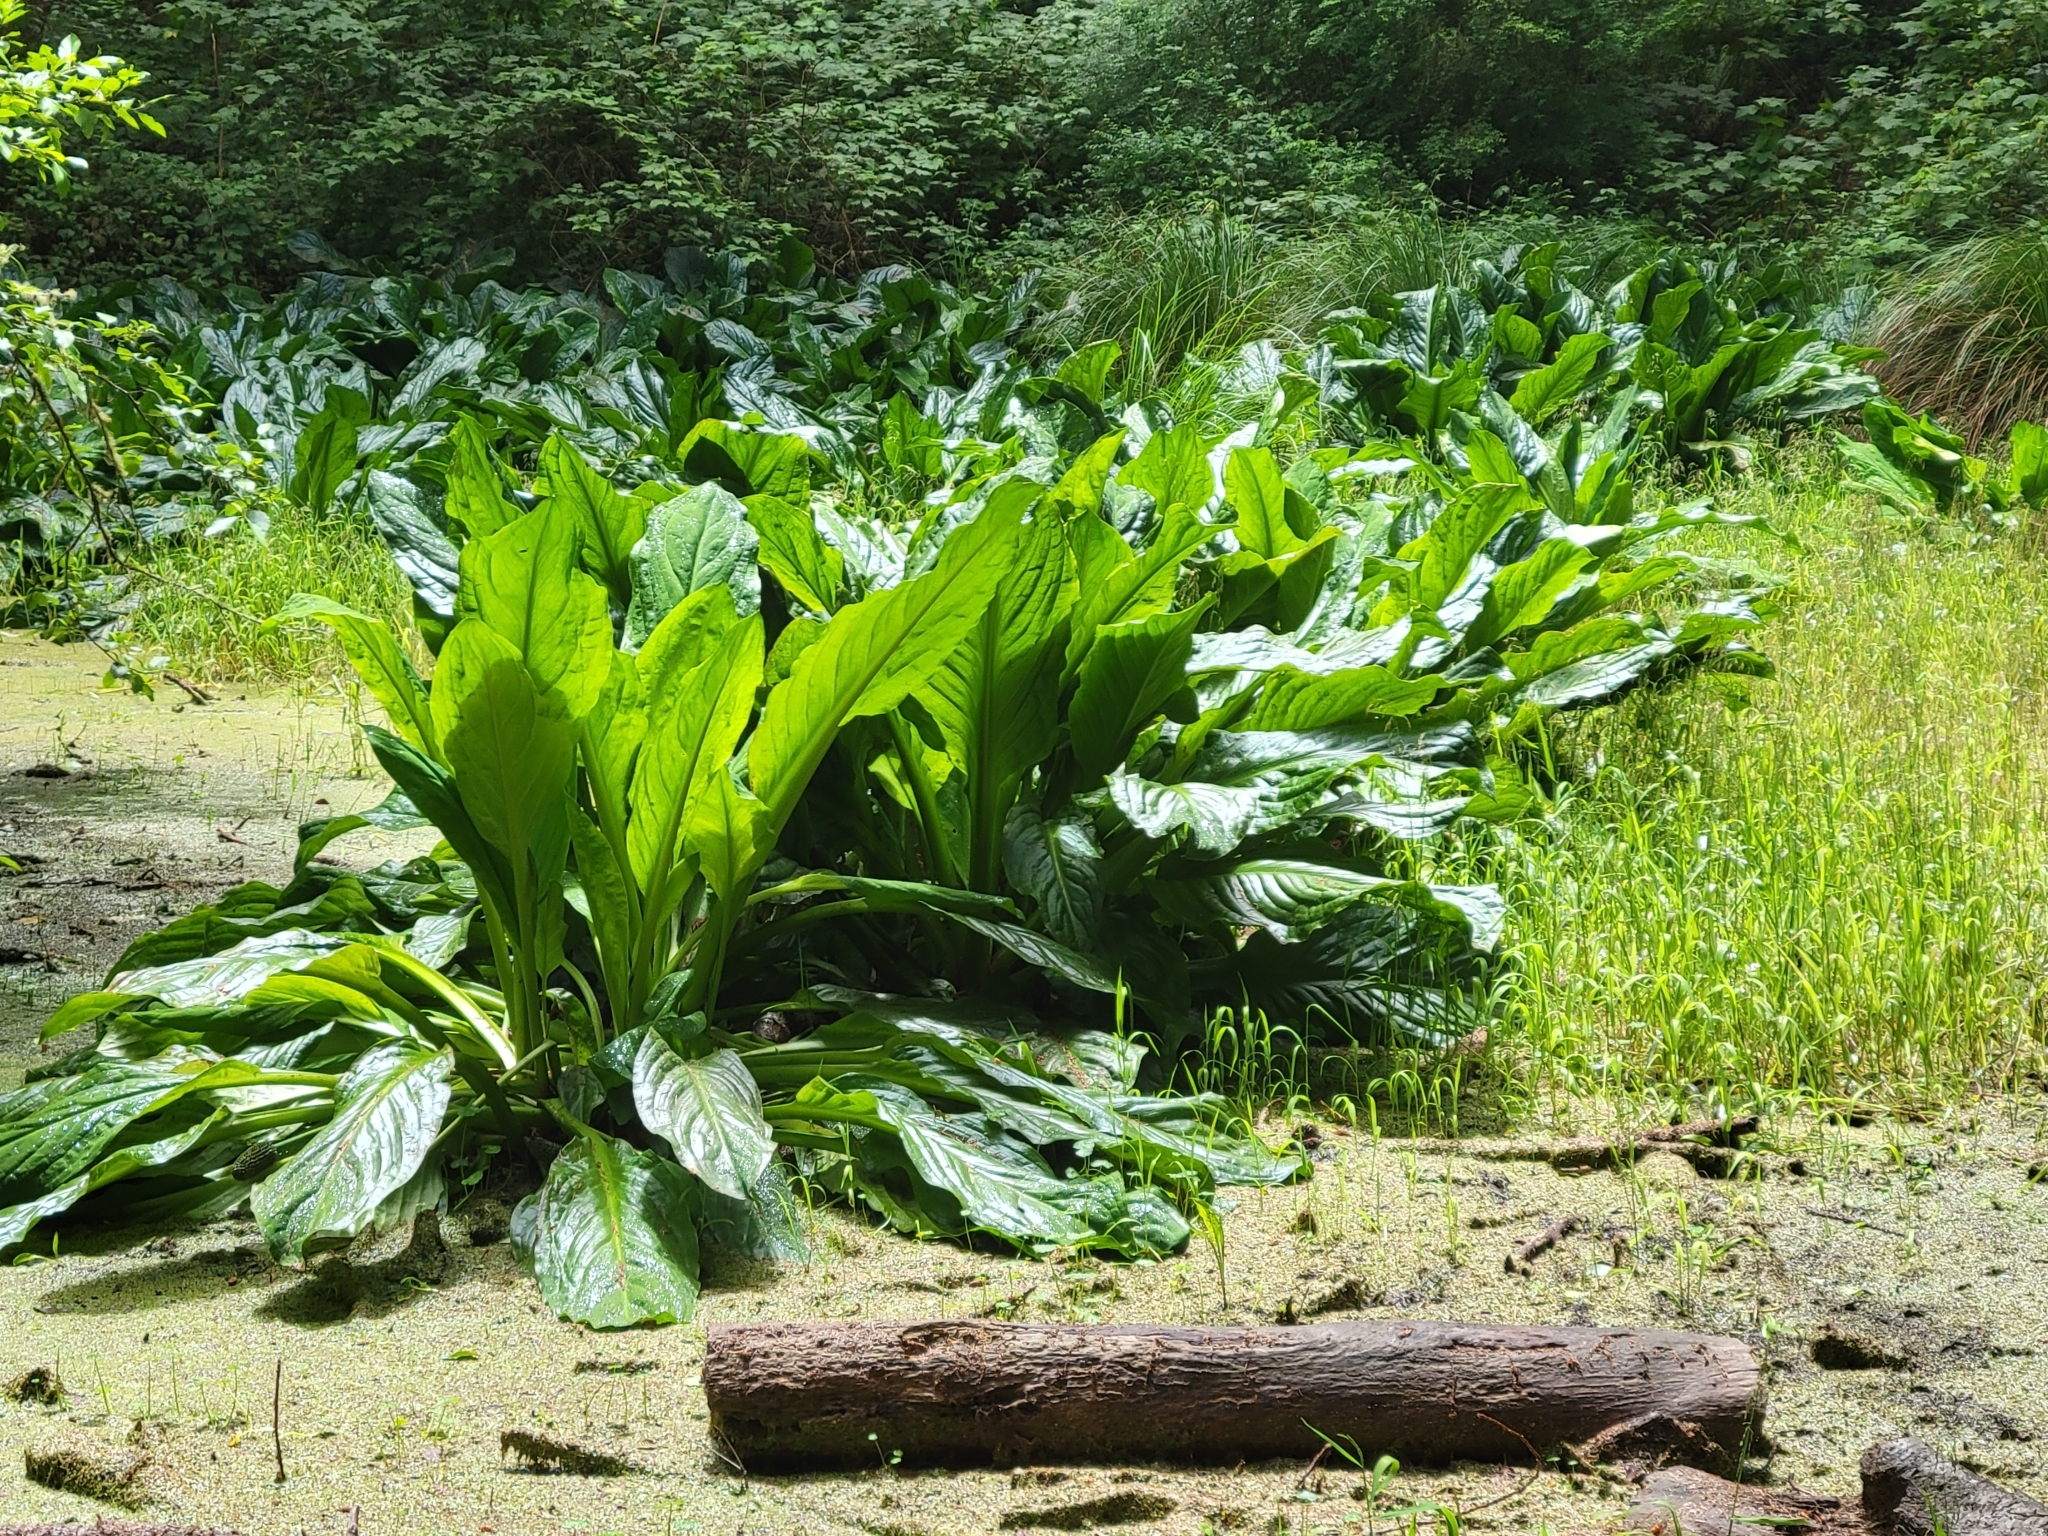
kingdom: Plantae
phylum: Tracheophyta
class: Liliopsida
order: Alismatales
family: Araceae
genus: Lysichiton
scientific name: Lysichiton americanus
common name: American skunk cabbage
